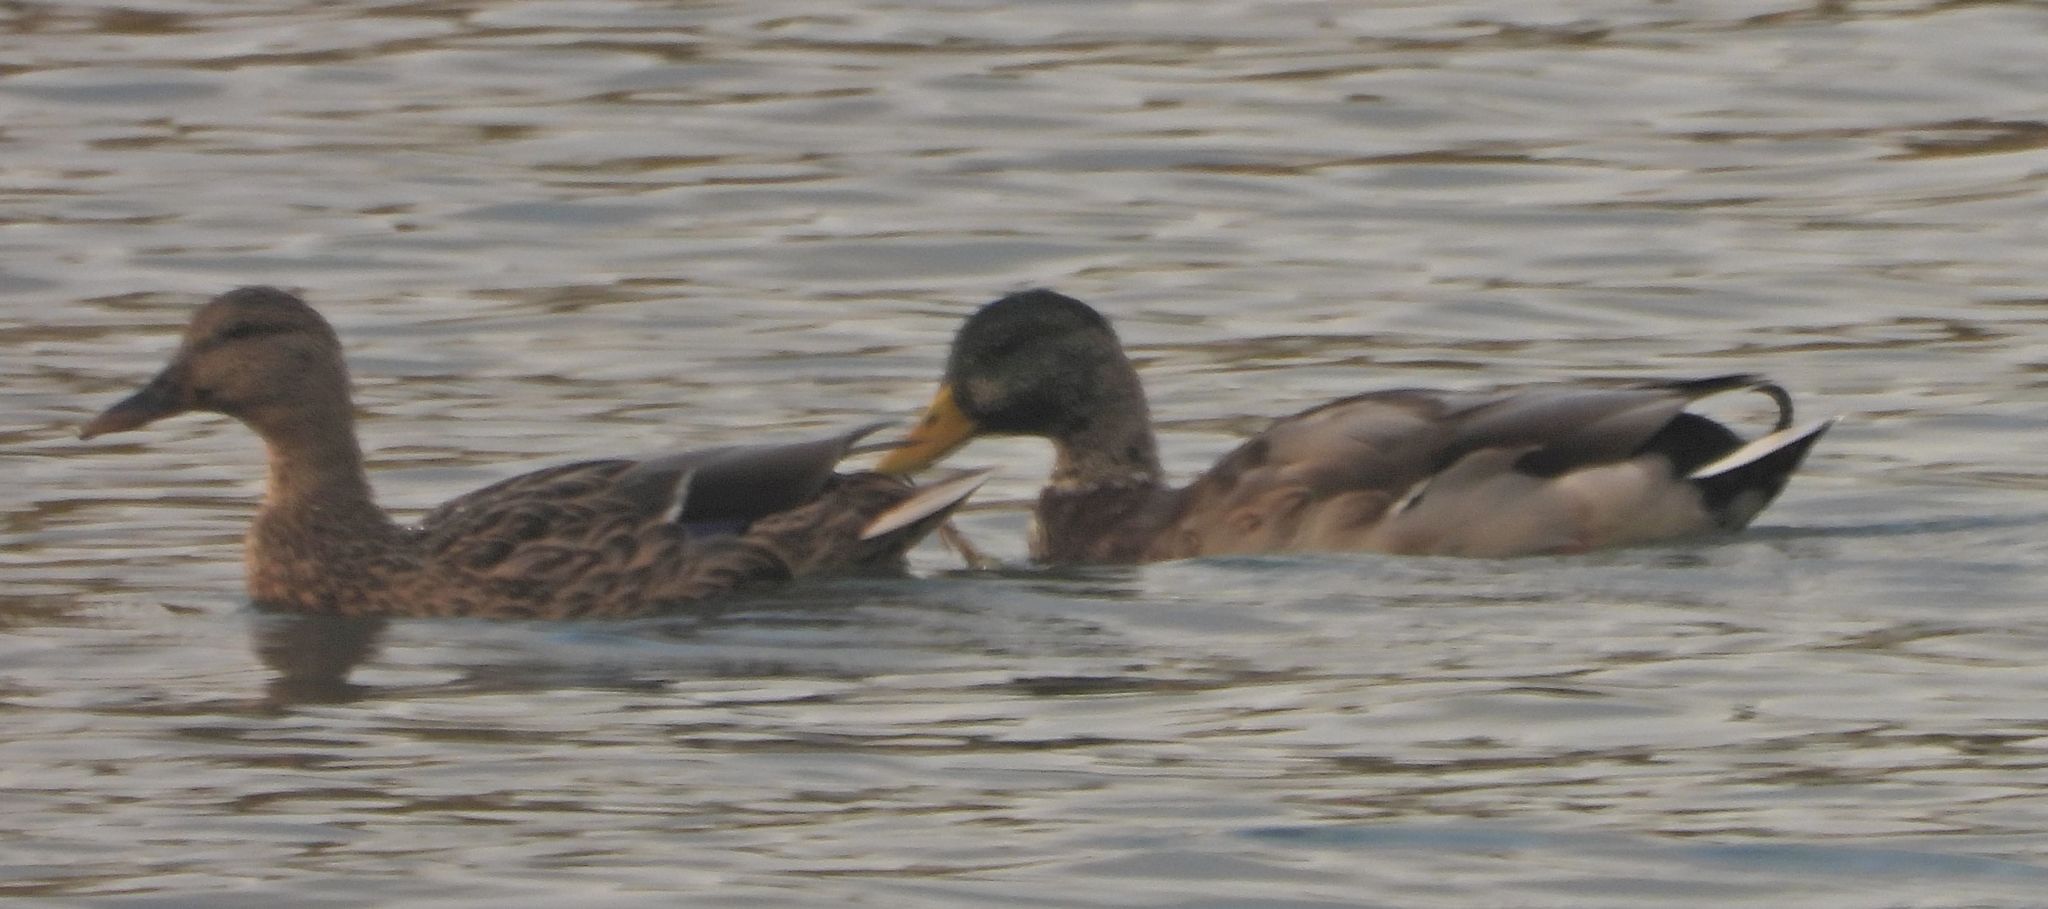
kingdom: Animalia
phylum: Chordata
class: Aves
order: Anseriformes
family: Anatidae
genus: Anas
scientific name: Anas platyrhynchos
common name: Mallard
